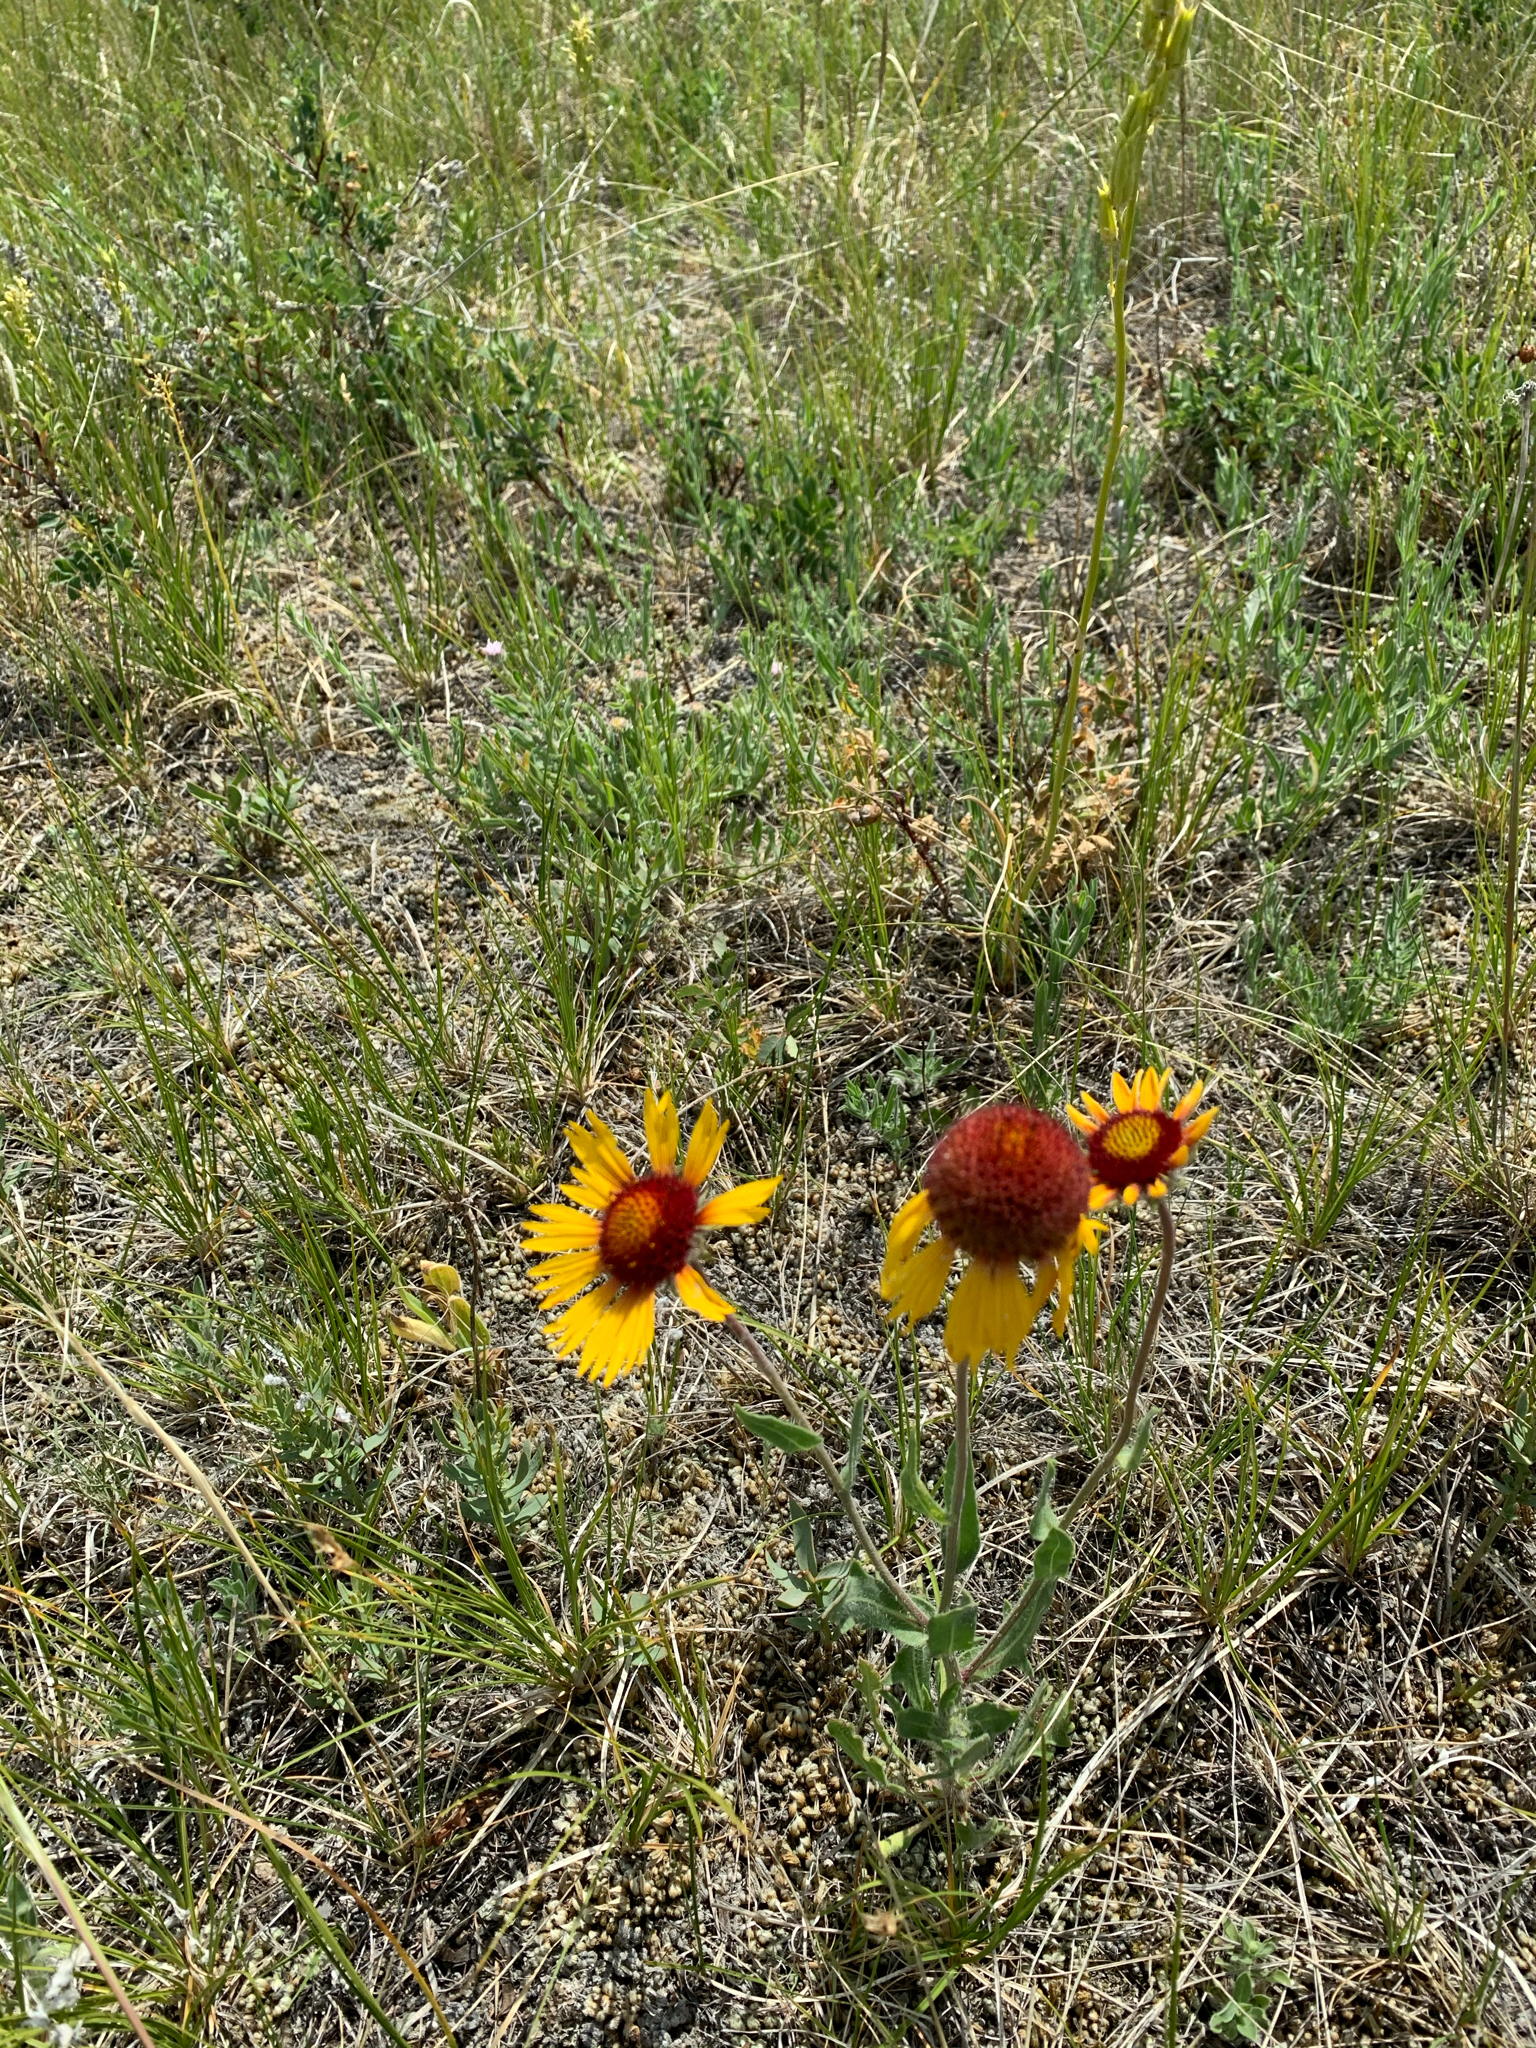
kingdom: Plantae
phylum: Tracheophyta
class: Magnoliopsida
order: Asterales
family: Asteraceae
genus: Gaillardia
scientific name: Gaillardia aristata
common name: Blanket-flower
